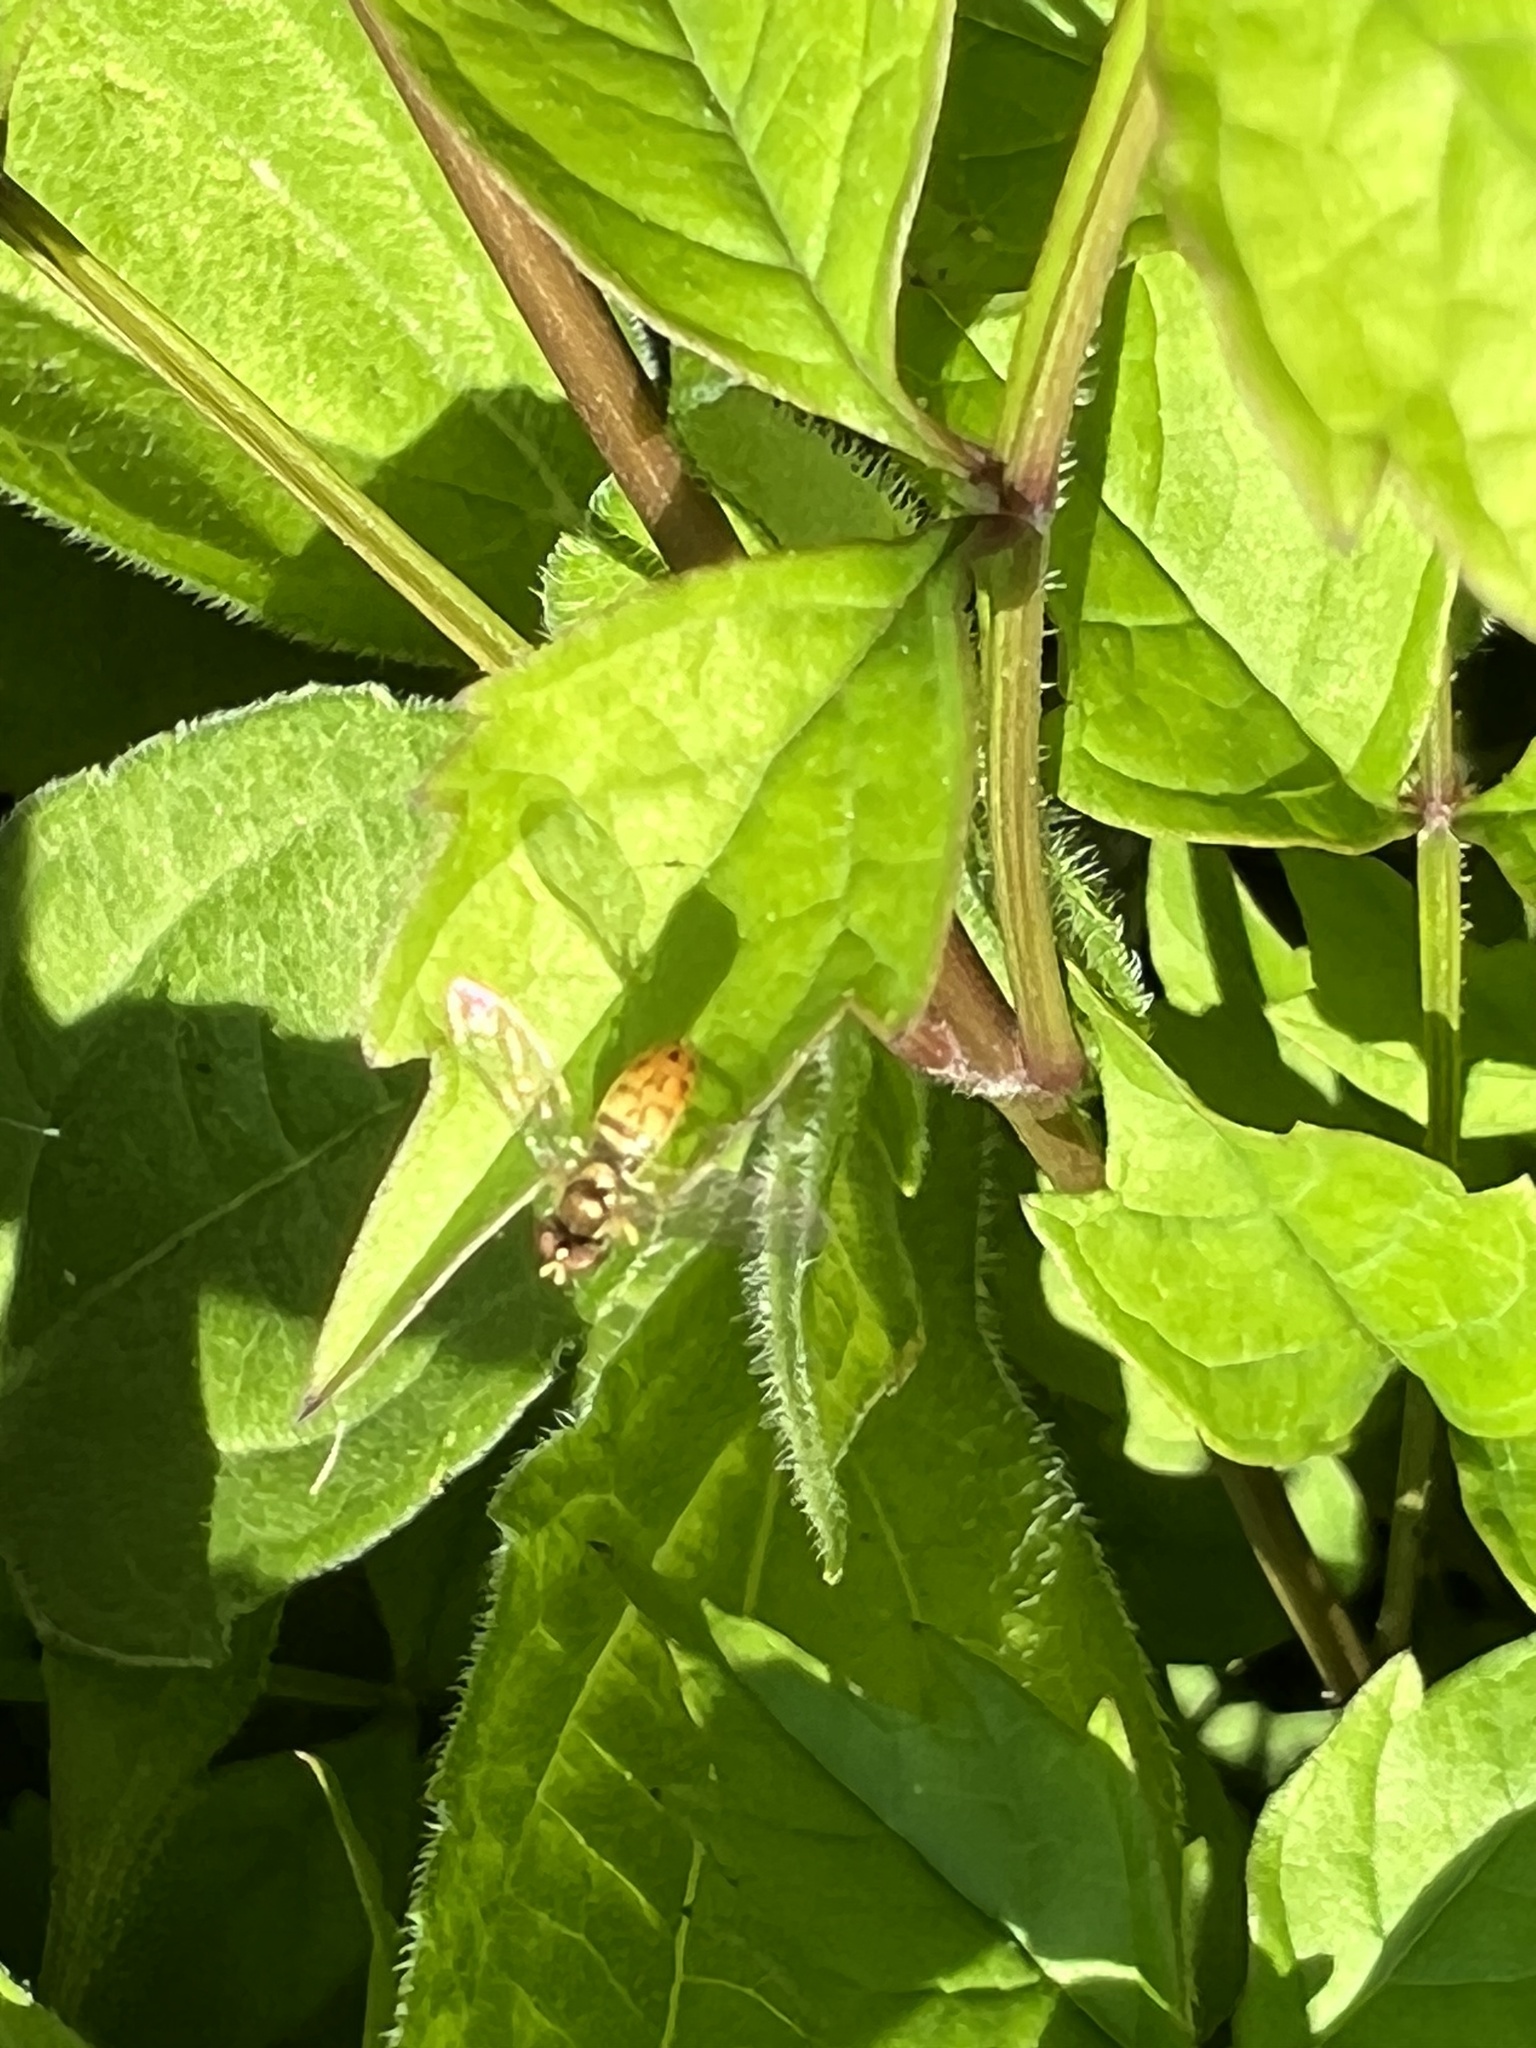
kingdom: Animalia
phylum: Arthropoda
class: Insecta
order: Diptera
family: Syrphidae
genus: Toxomerus
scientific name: Toxomerus marginatus
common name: Syrphid fly
